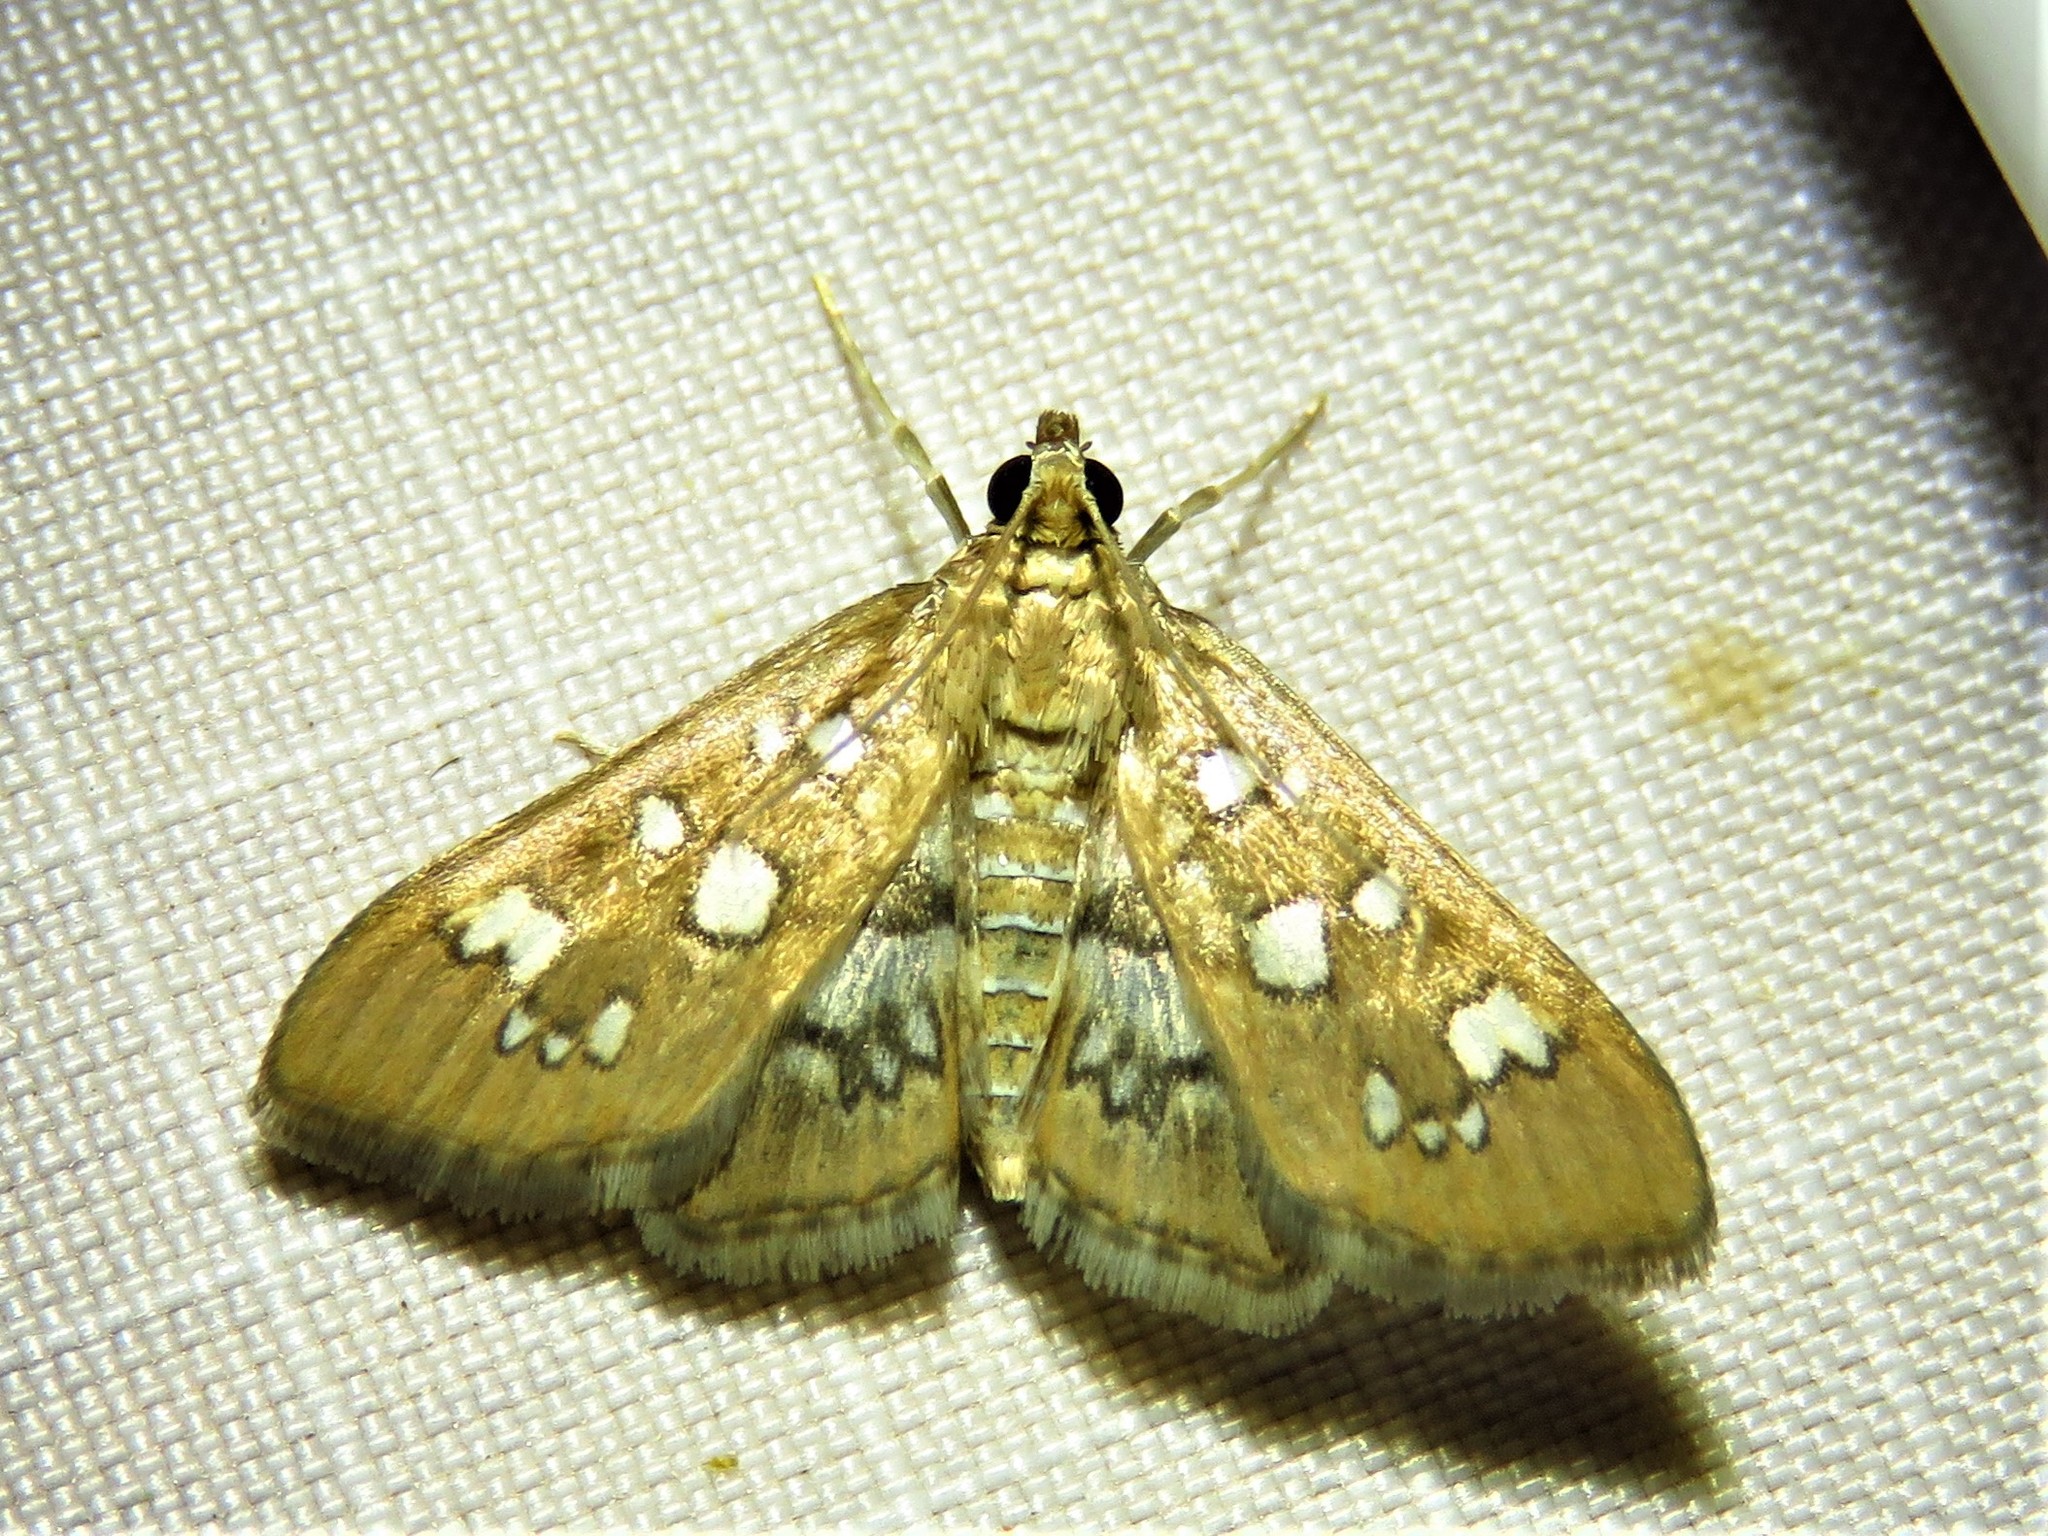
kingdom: Animalia
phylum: Arthropoda
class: Insecta
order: Lepidoptera
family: Crambidae
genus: Samea
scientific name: Samea baccatalis
